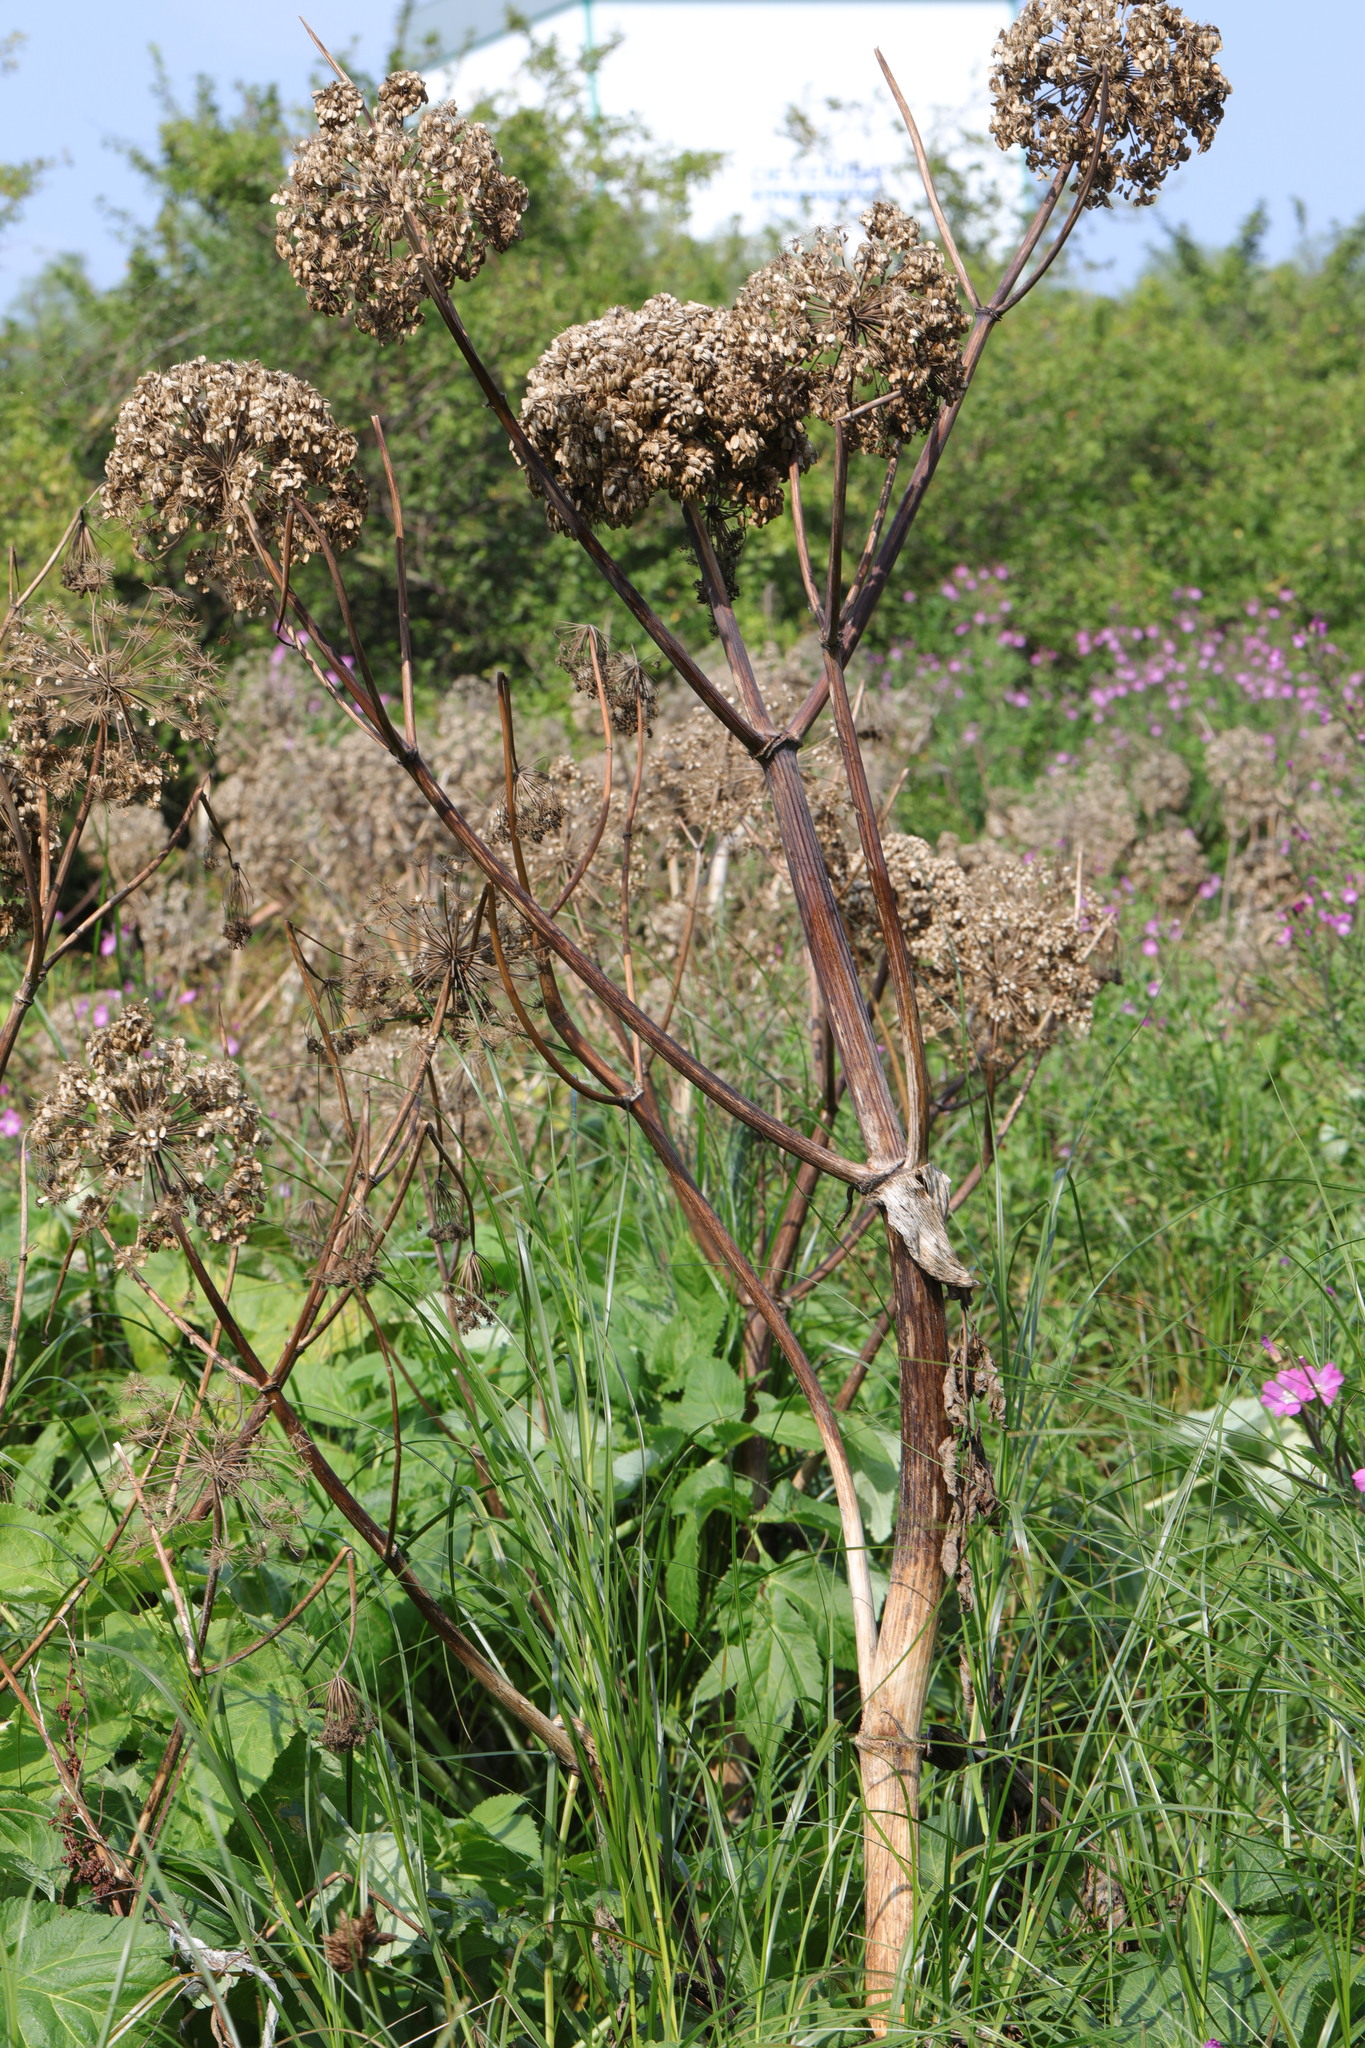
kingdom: Plantae
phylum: Tracheophyta
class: Magnoliopsida
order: Apiales
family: Apiaceae
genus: Angelica
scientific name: Angelica archangelica
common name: Garden angelica
